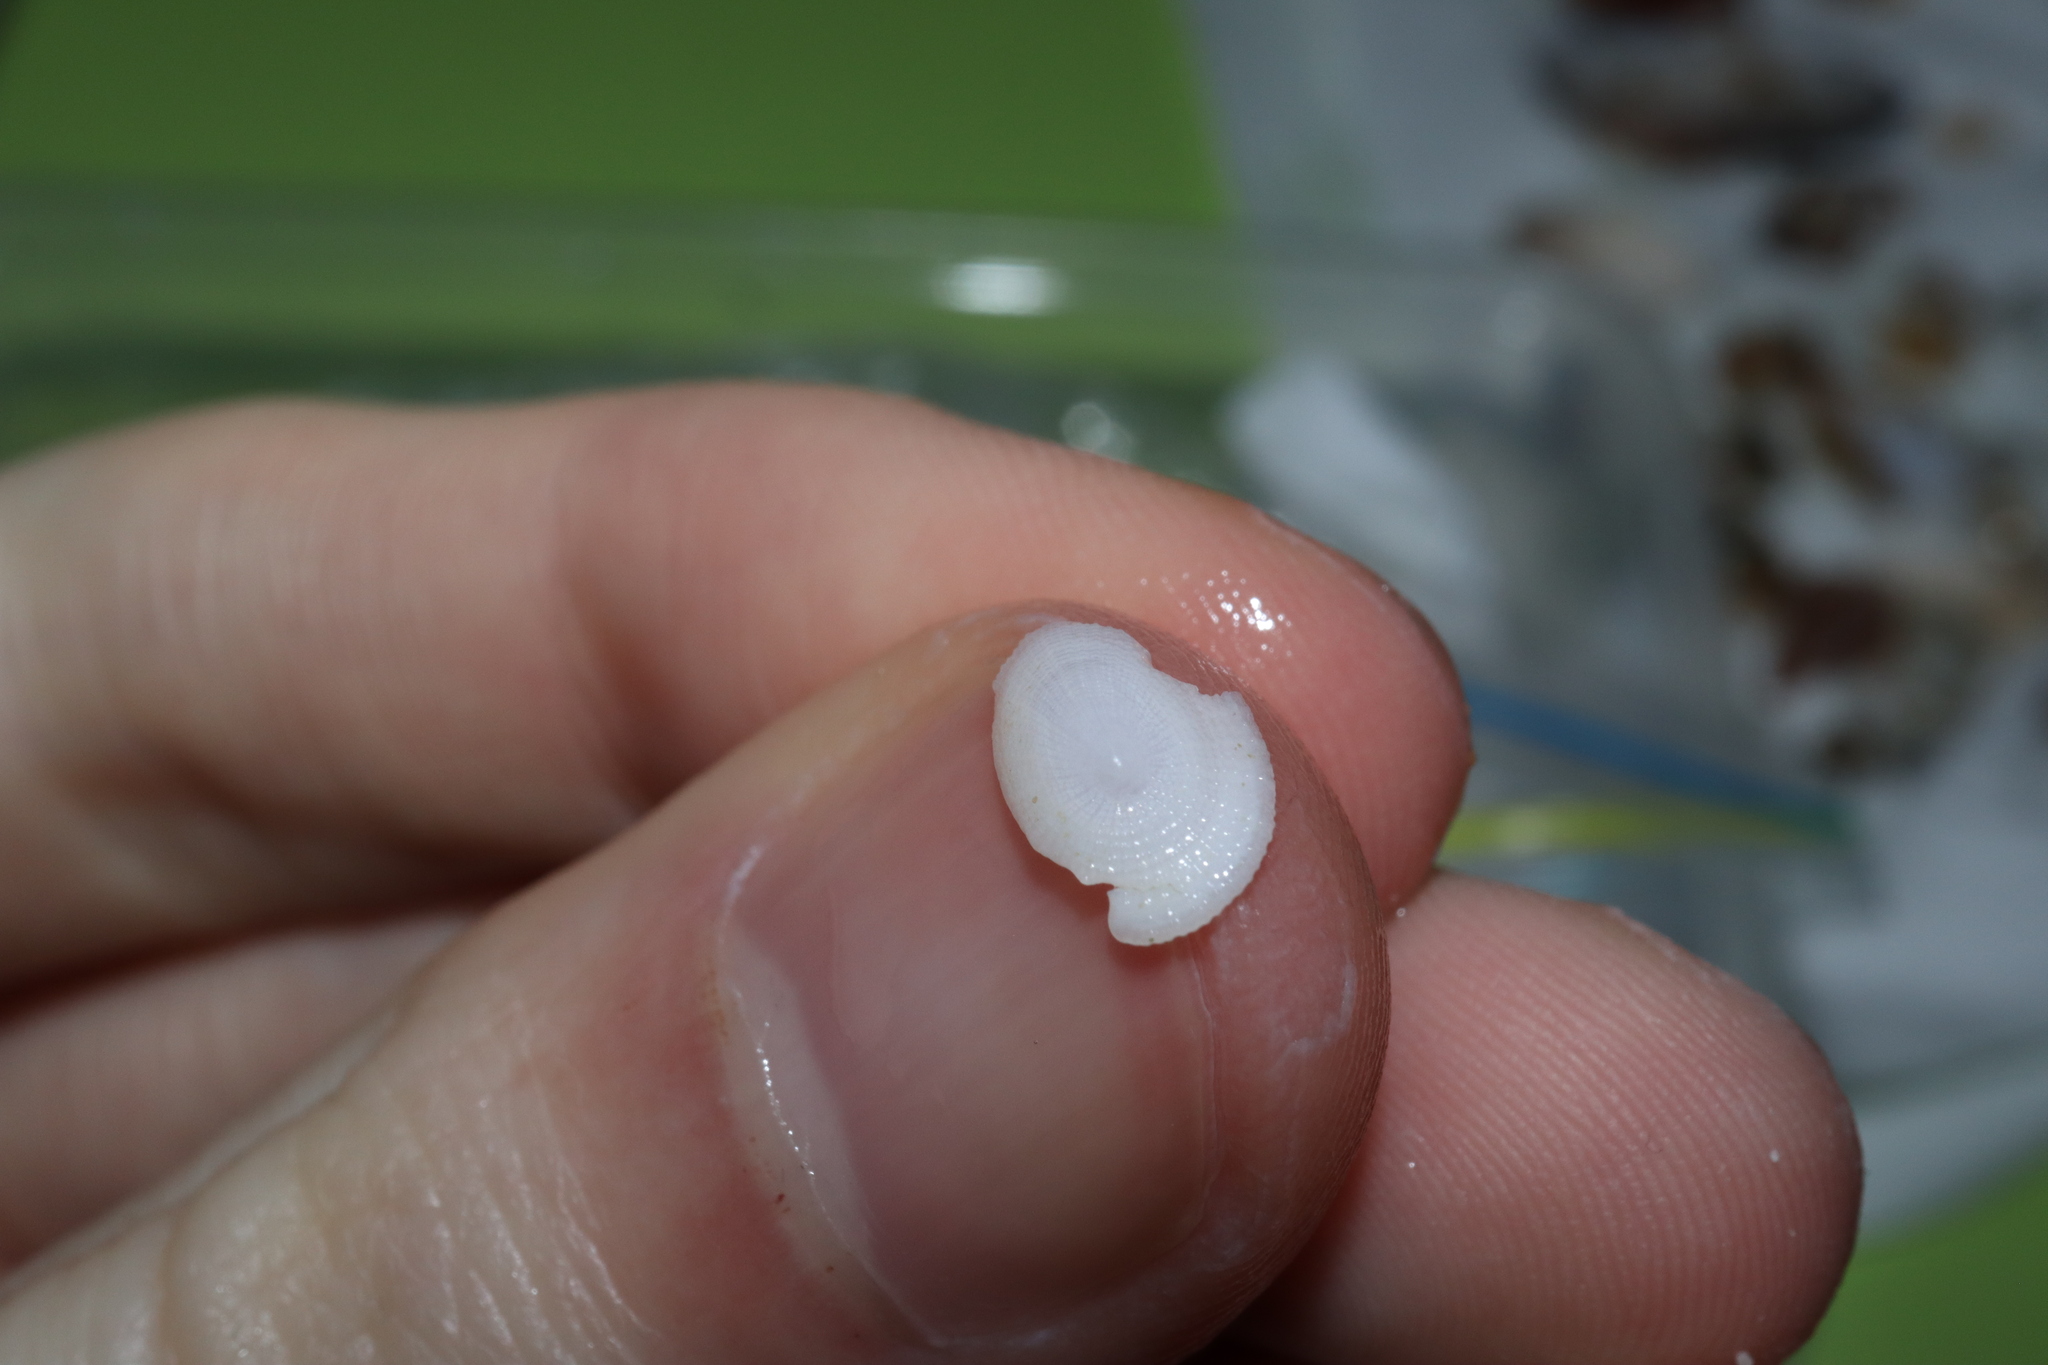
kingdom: Animalia
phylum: Mollusca
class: Gastropoda
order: Lepetellida
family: Fissurellidae
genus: Tugali
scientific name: Tugali parmophoidea
